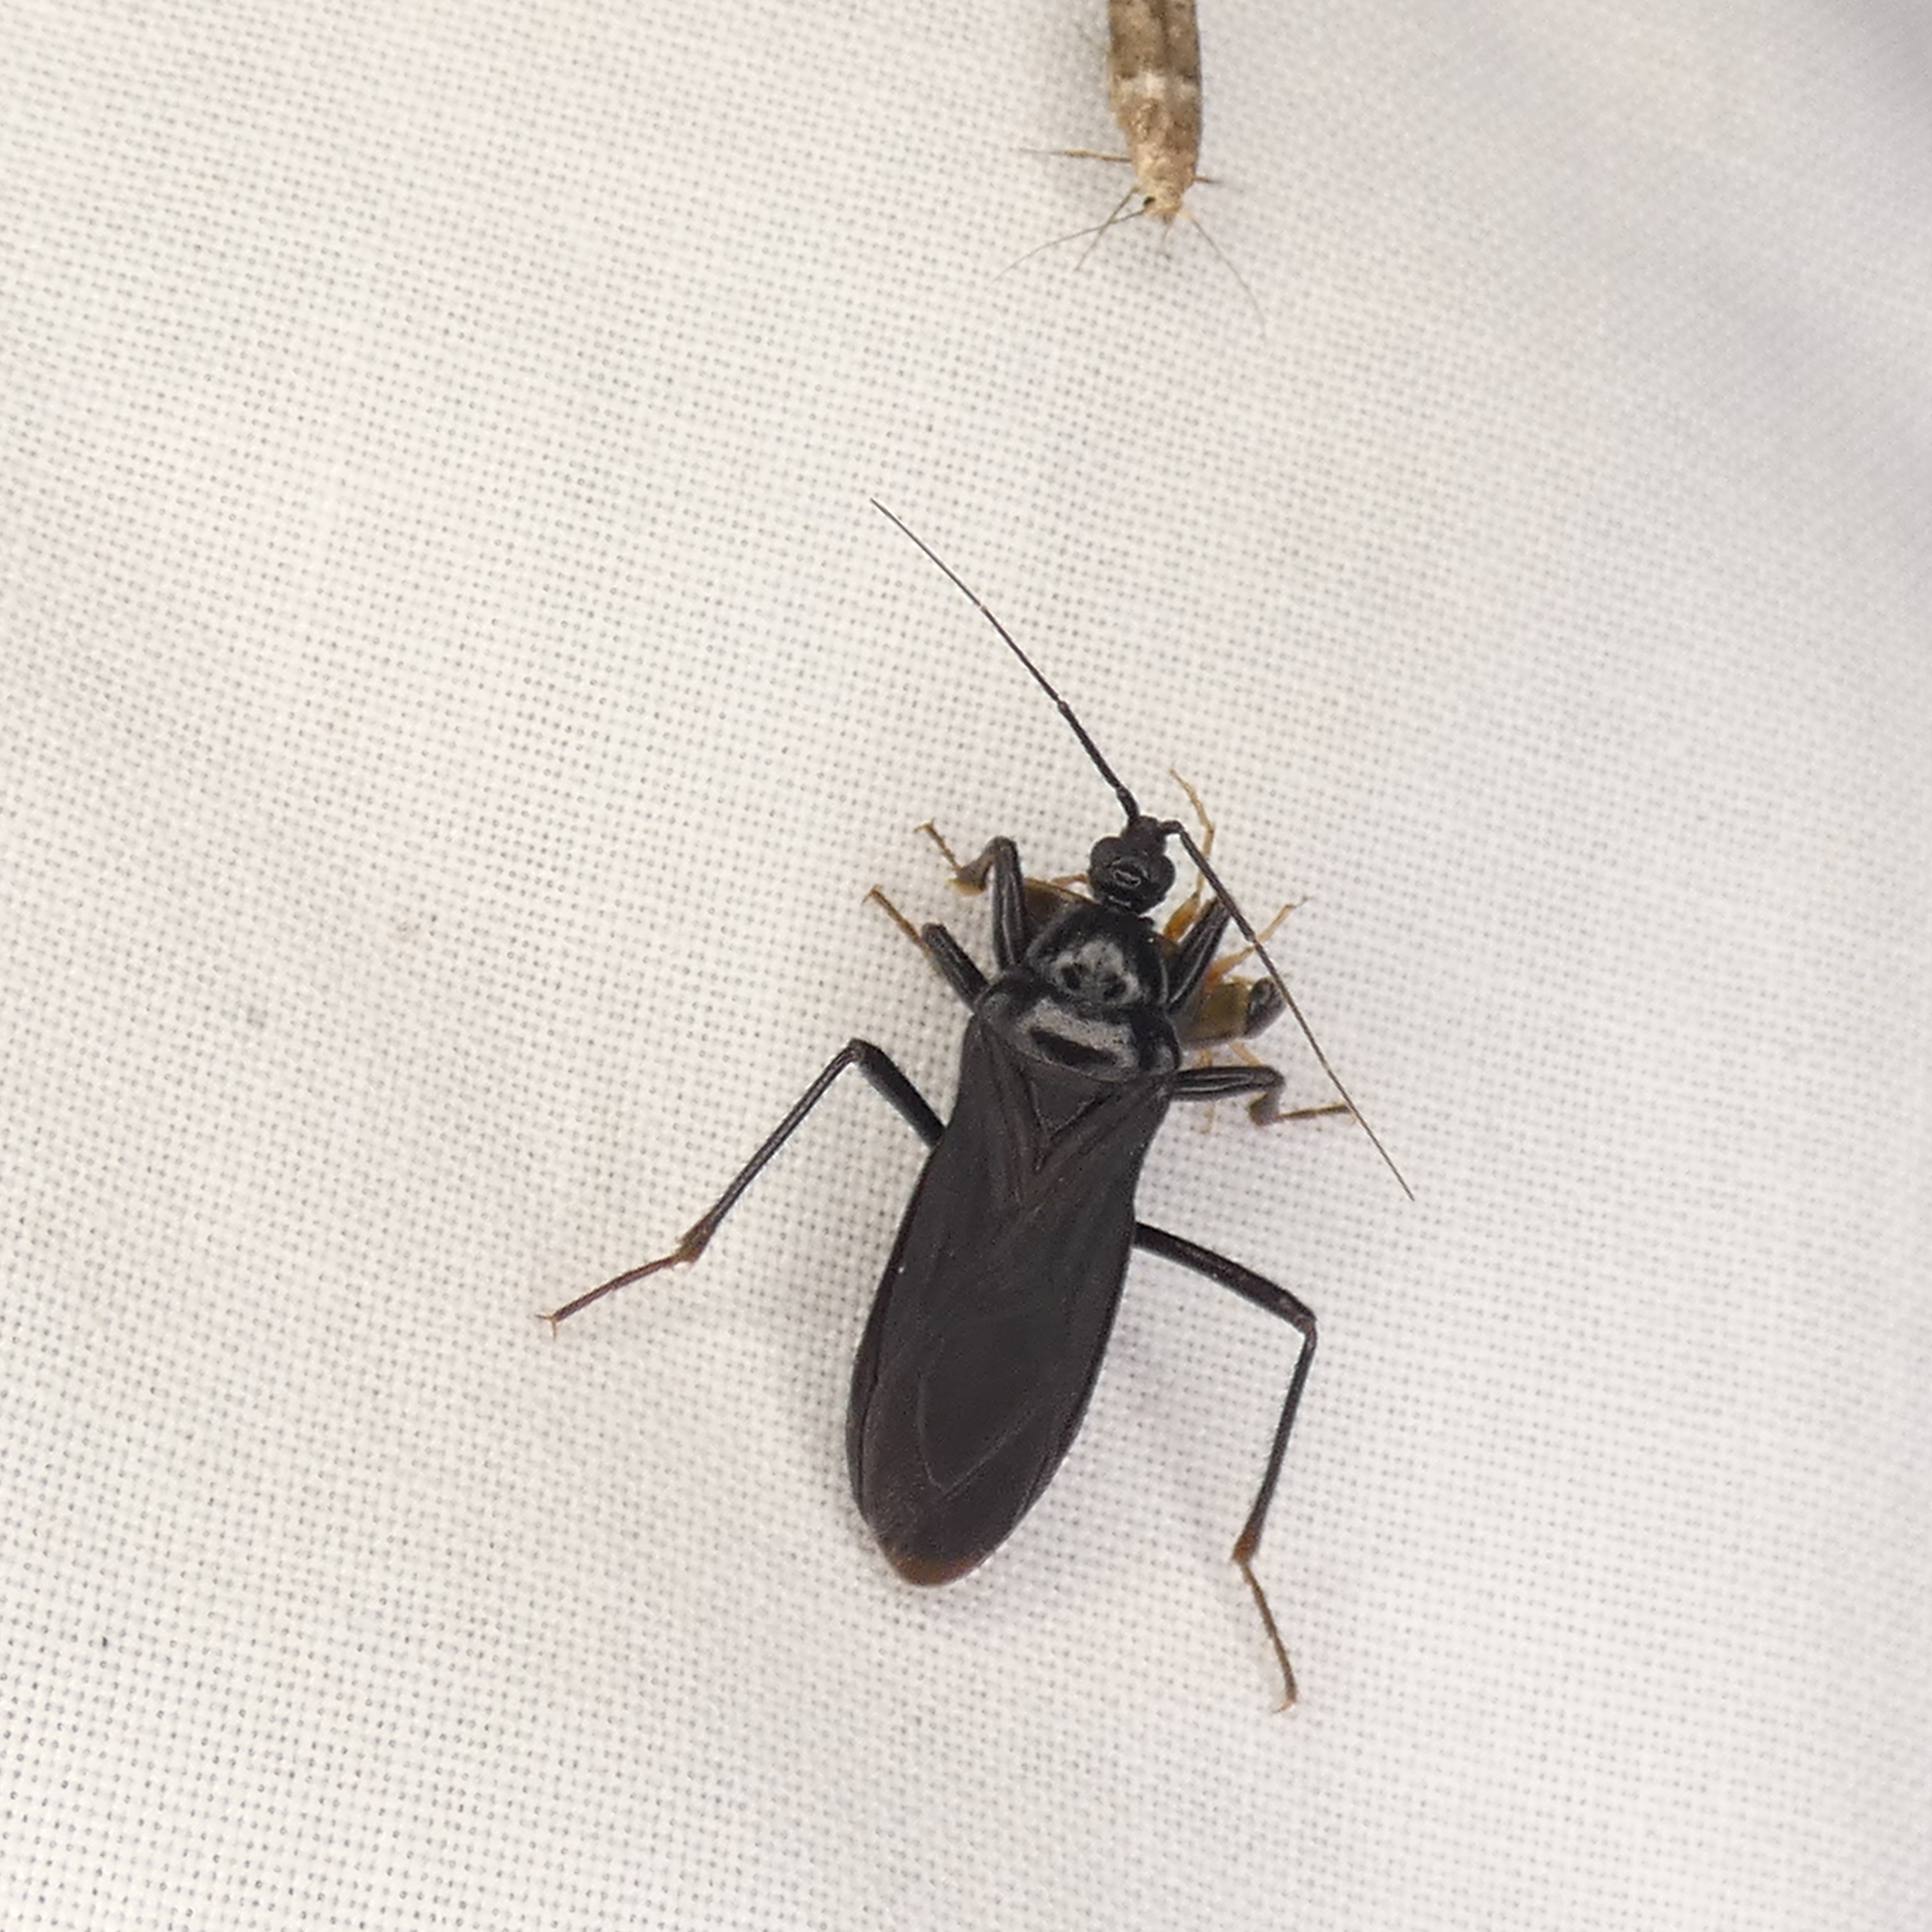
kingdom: Animalia
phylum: Arthropoda
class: Insecta
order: Hemiptera
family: Reduviidae
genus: Melanolestes
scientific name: Melanolestes picipes
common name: Assassin bug
